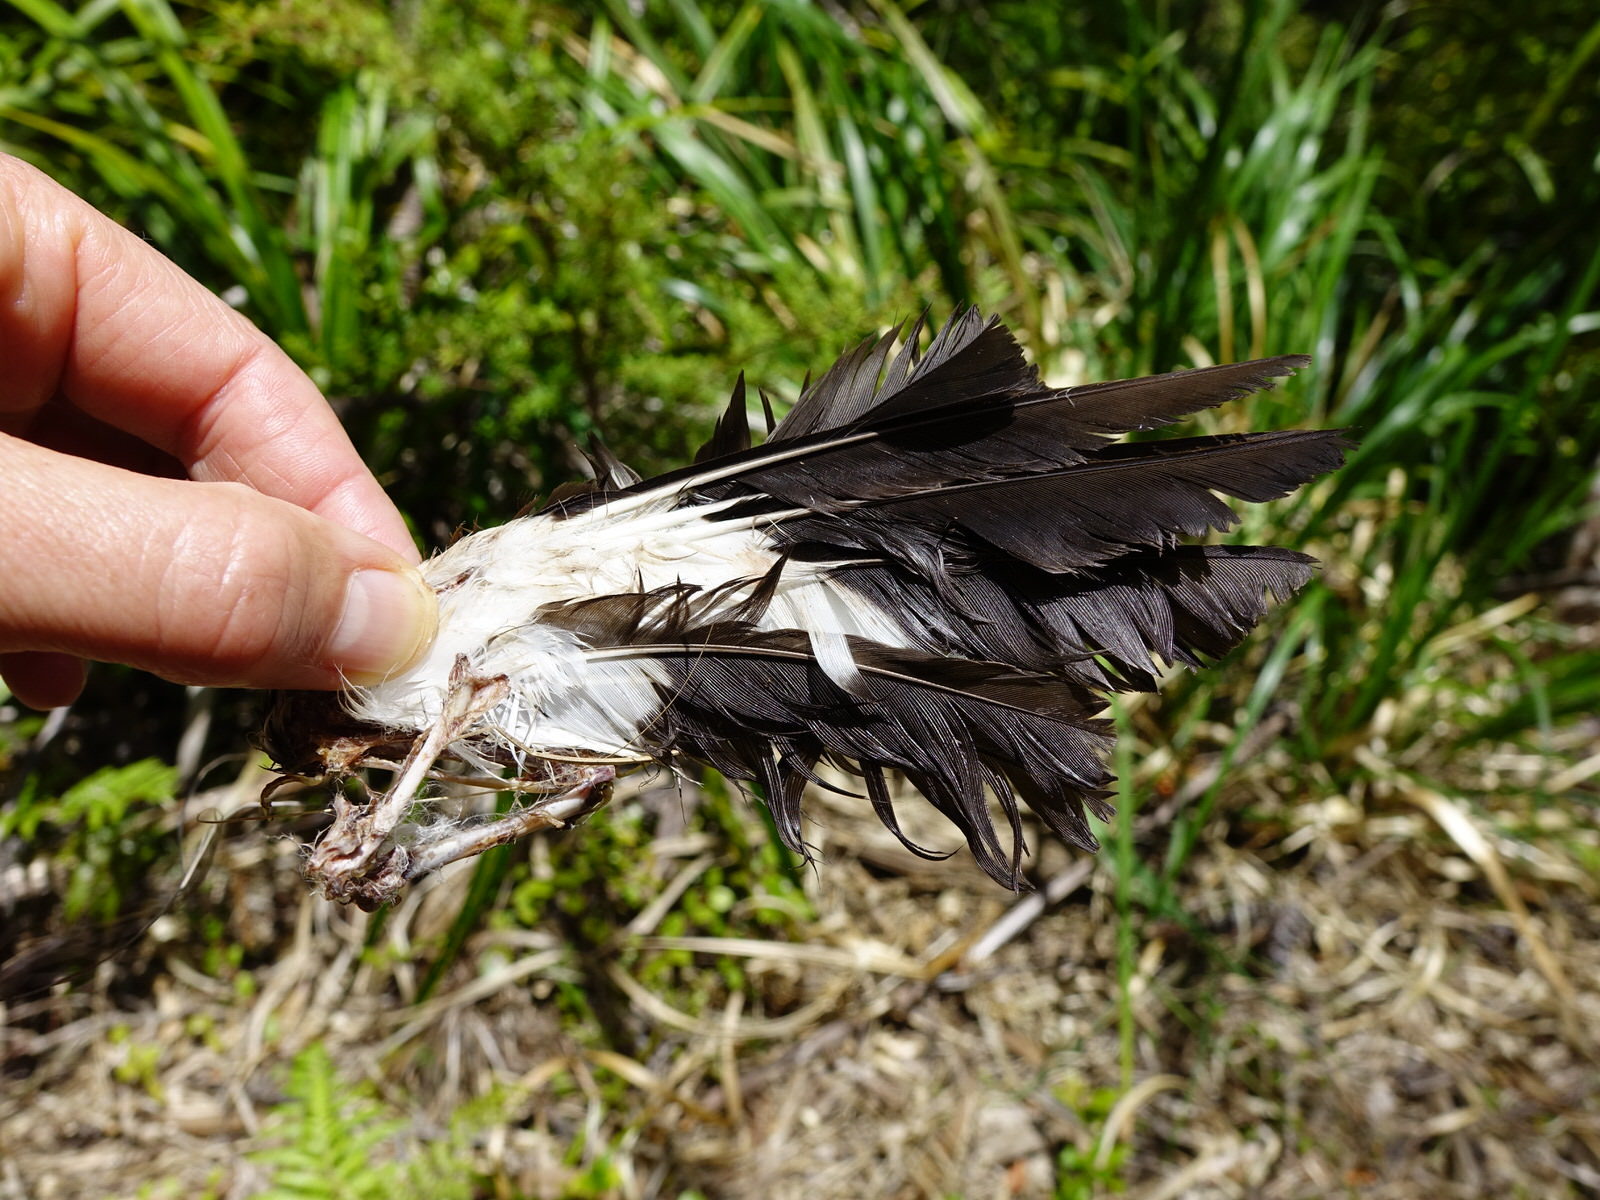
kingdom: Animalia
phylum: Chordata
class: Aves
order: Gruiformes
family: Rallidae
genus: Porphyrio
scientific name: Porphyrio melanotus
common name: Australasian swamphen
